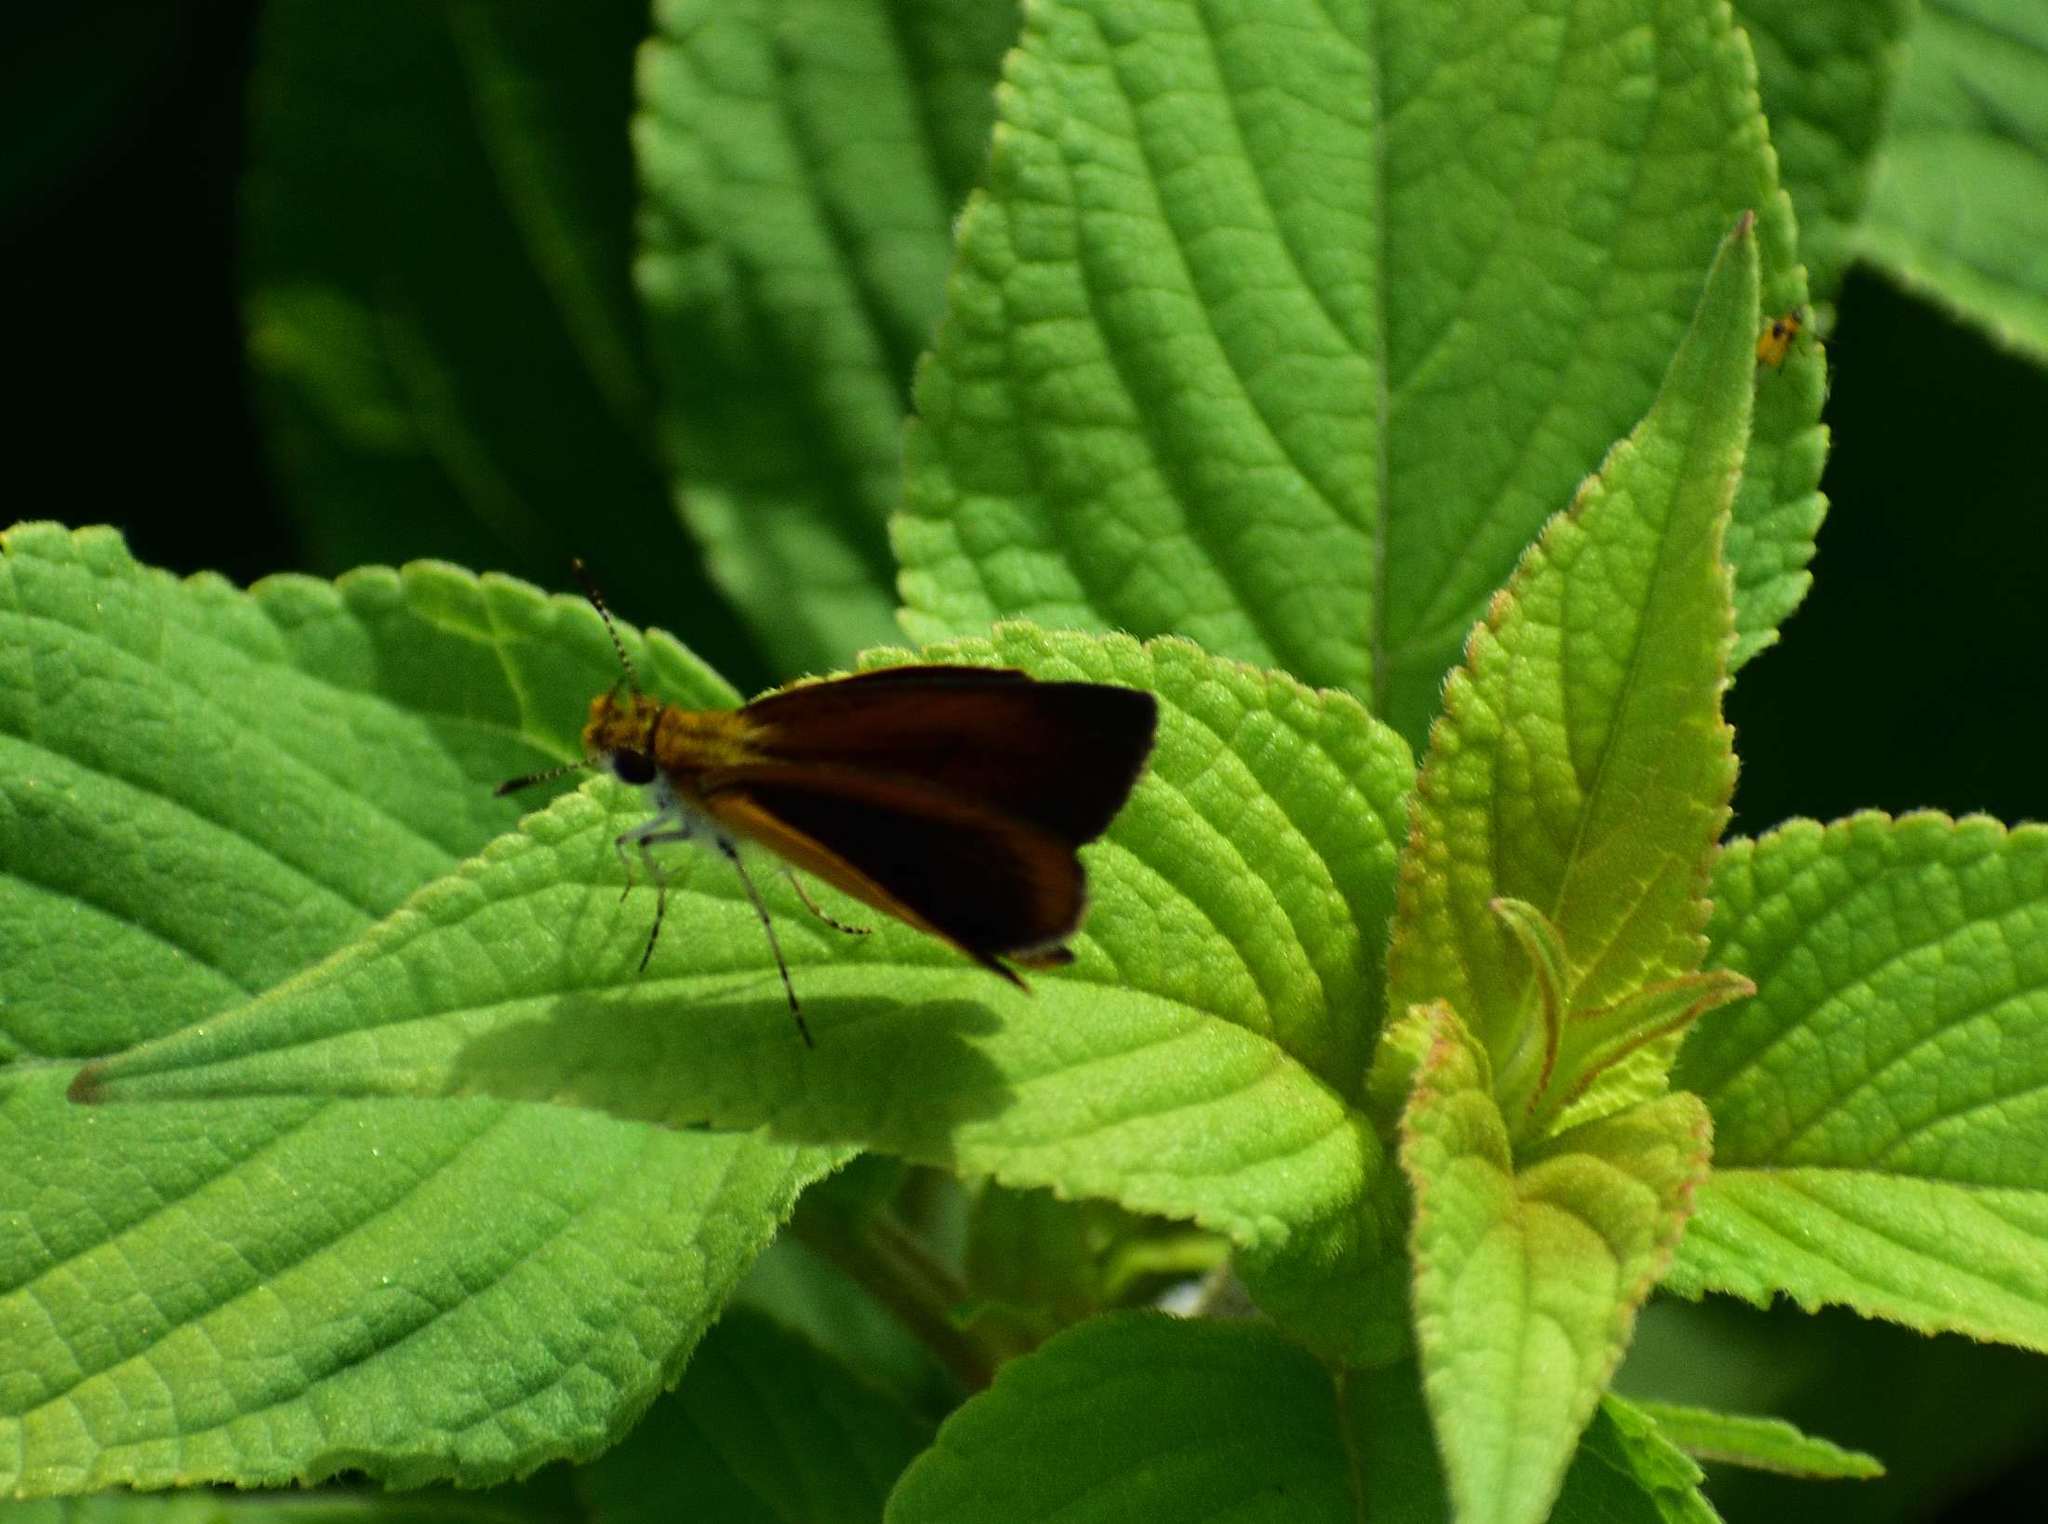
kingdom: Animalia
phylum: Arthropoda
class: Insecta
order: Lepidoptera
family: Hesperiidae
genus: Ancyloxypha
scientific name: Ancyloxypha numitor
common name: Least skipper
